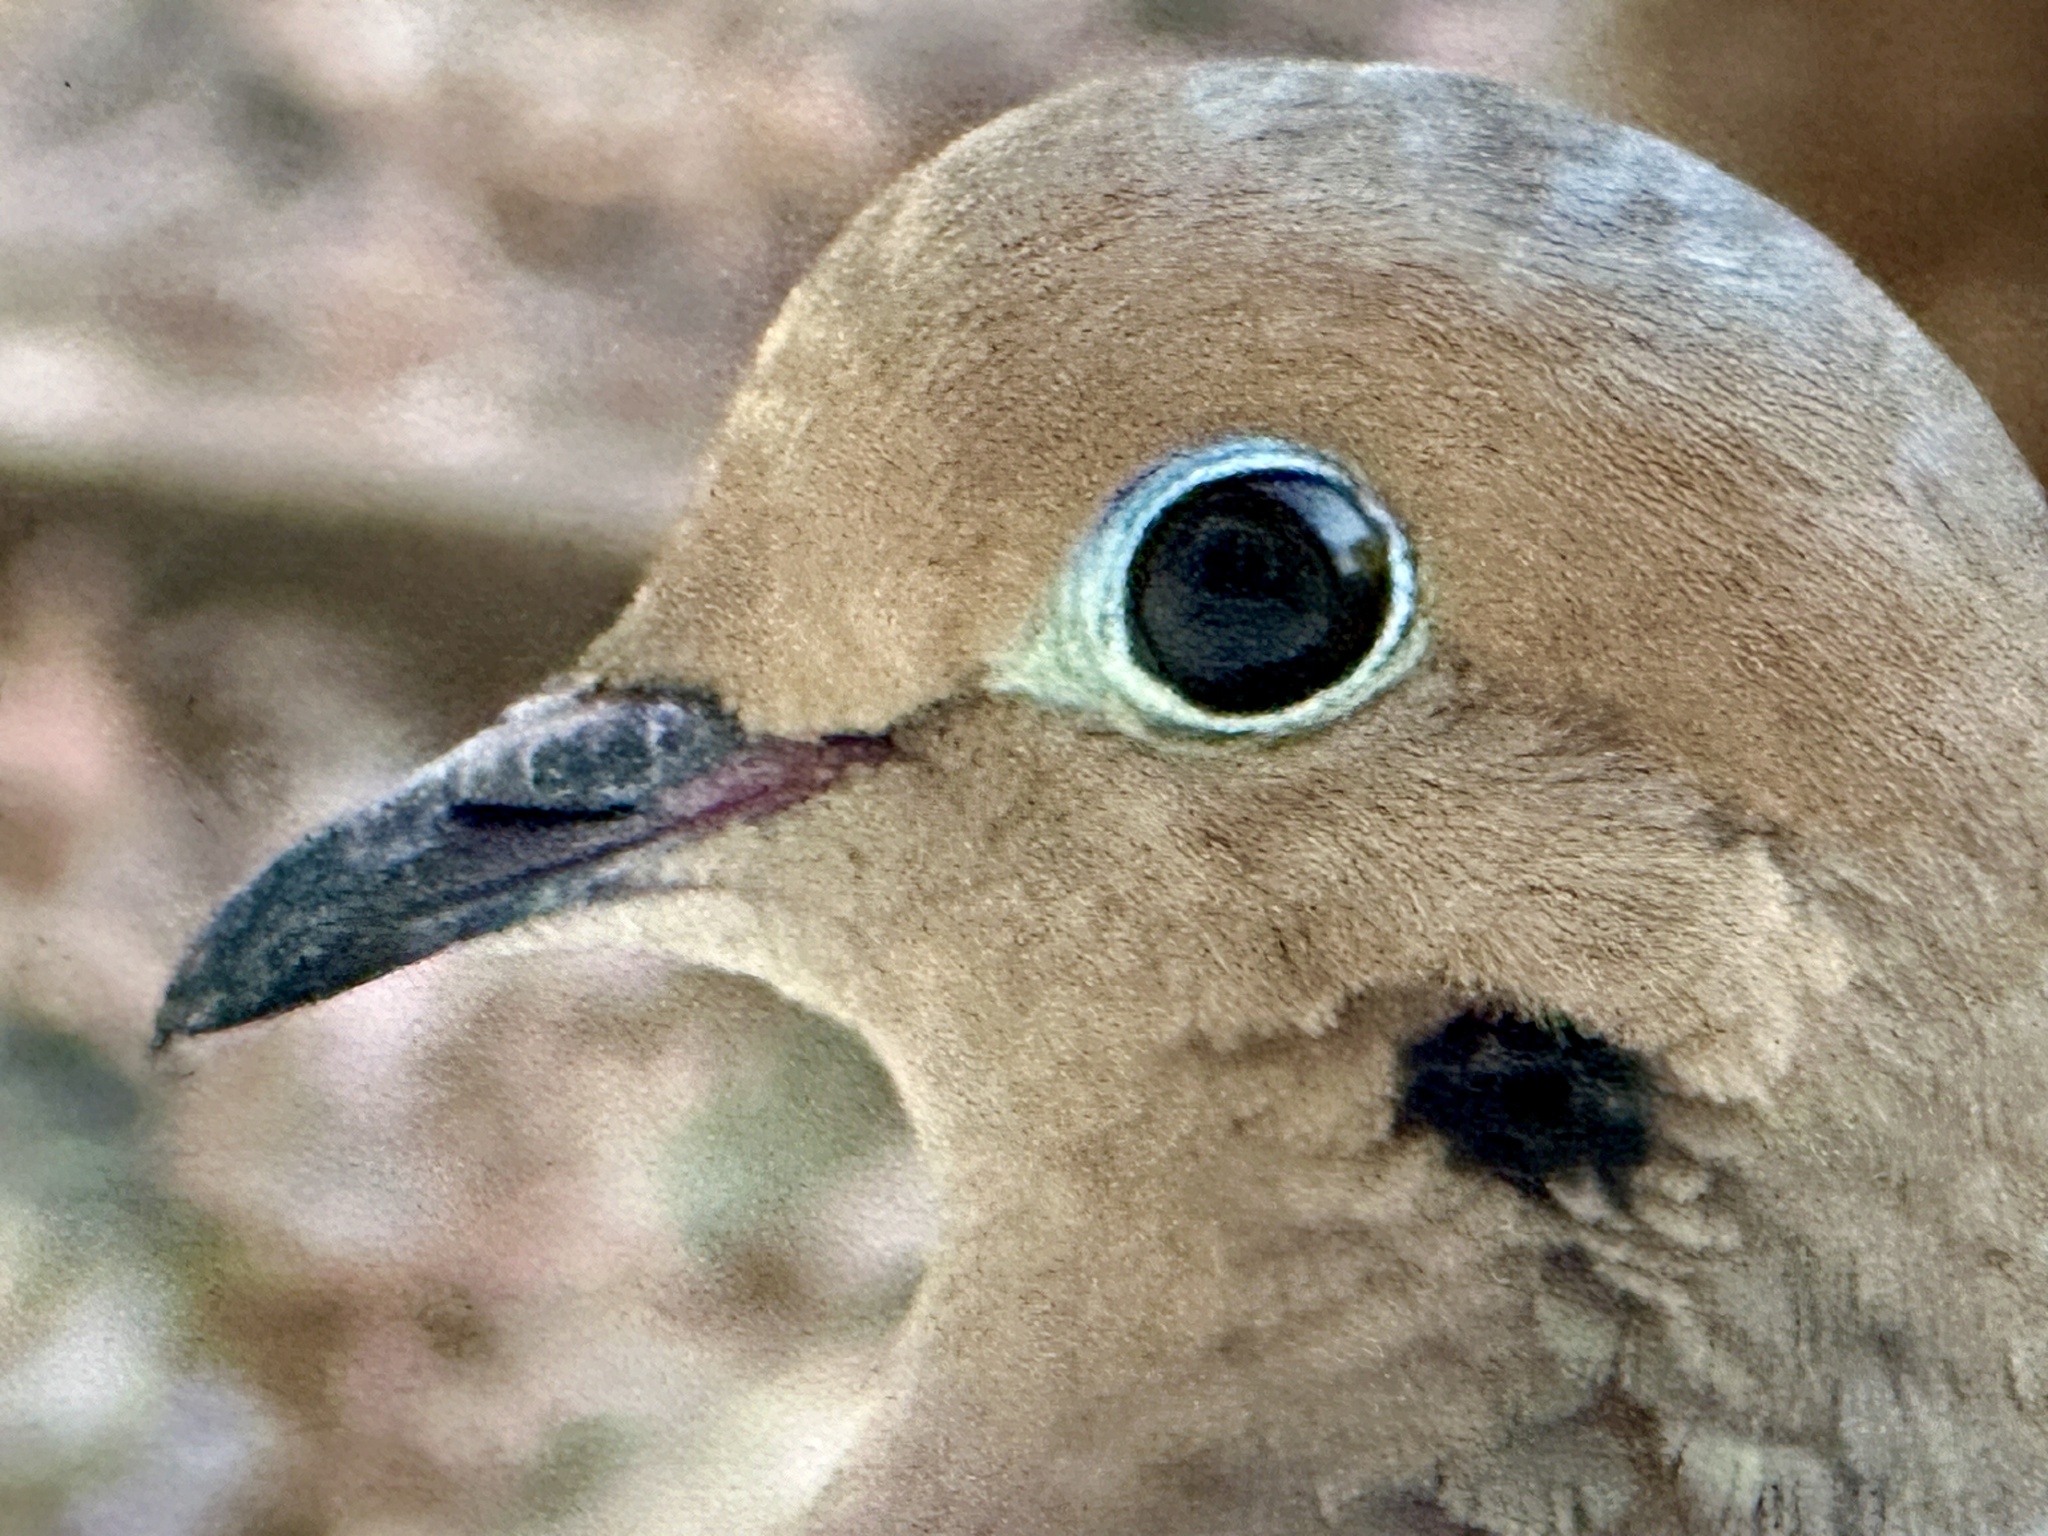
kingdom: Animalia
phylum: Chordata
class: Aves
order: Columbiformes
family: Columbidae
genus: Zenaida
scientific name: Zenaida macroura
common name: Mourning dove
